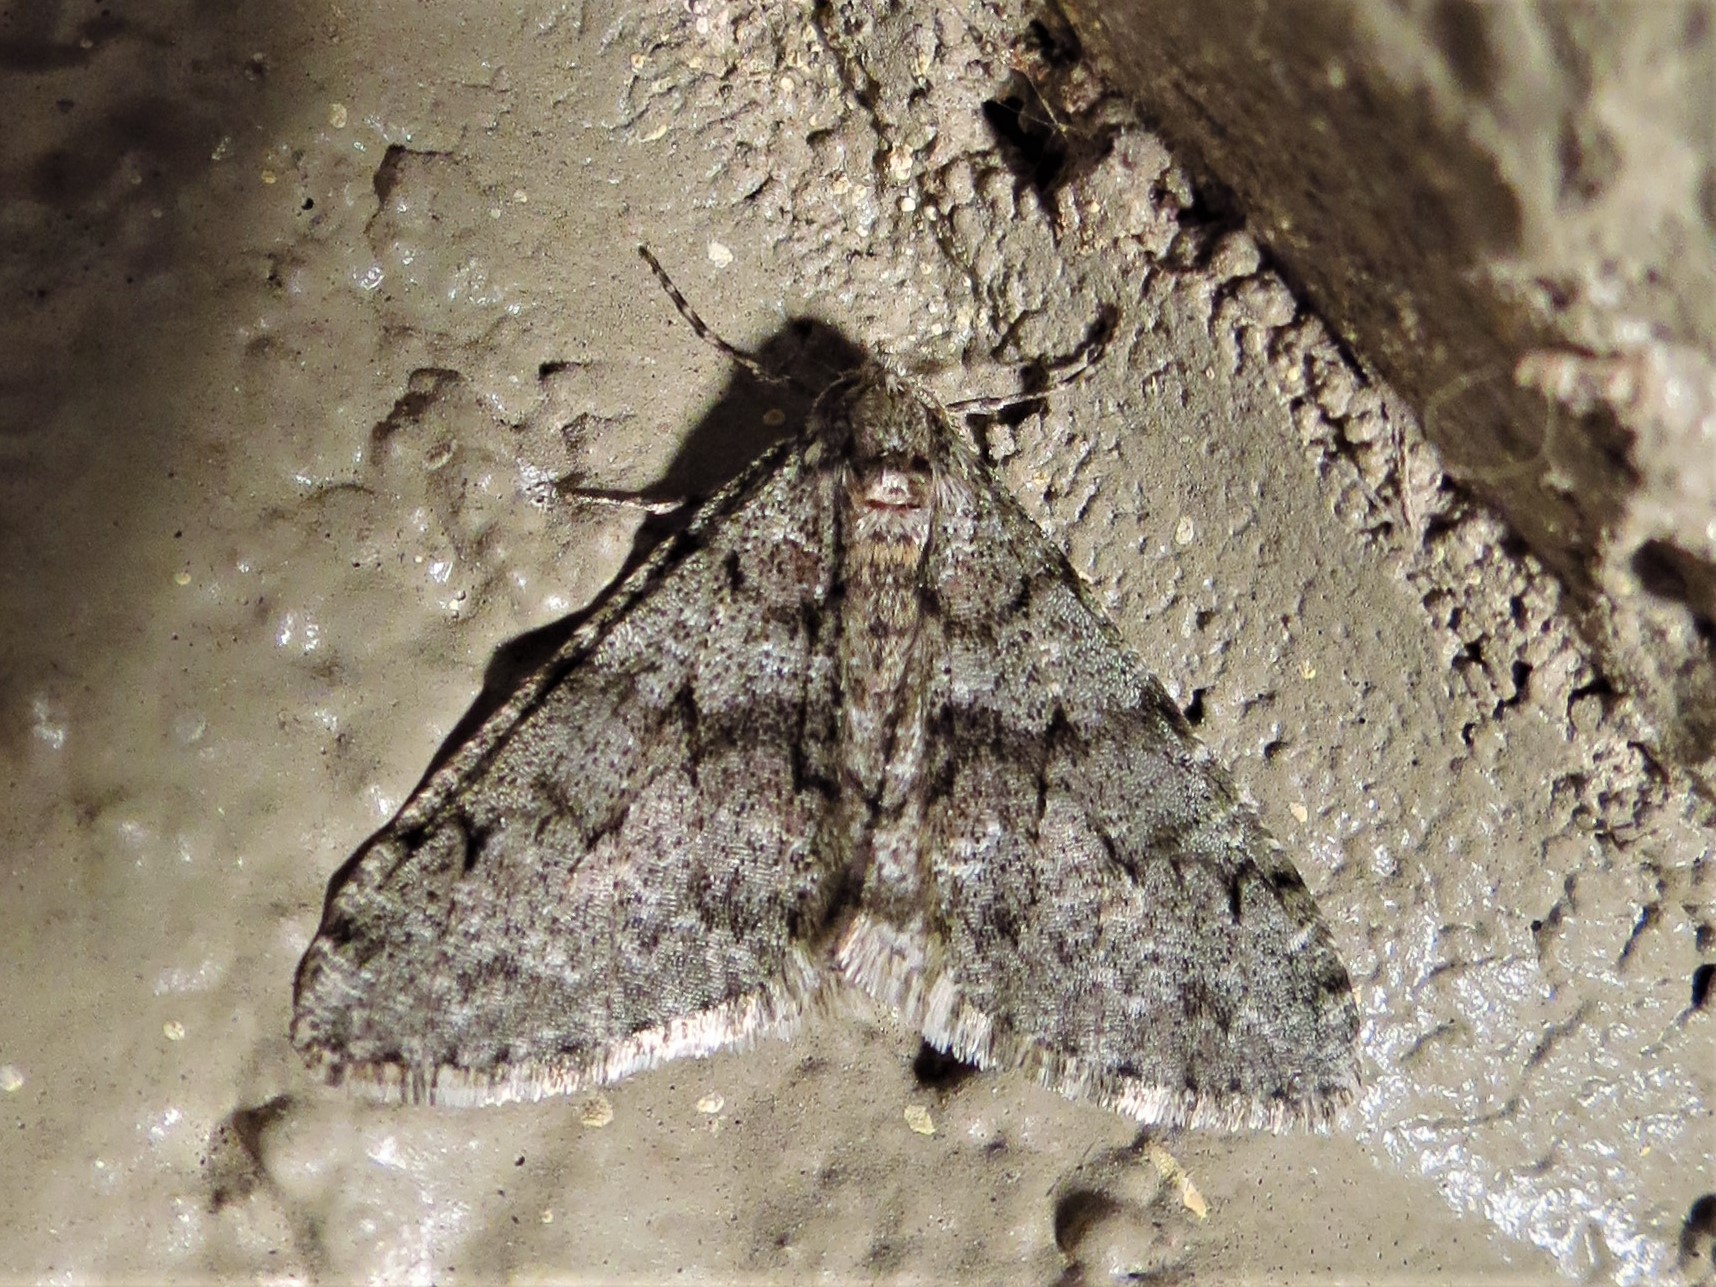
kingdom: Animalia
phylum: Arthropoda
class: Insecta
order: Lepidoptera
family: Geometridae
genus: Phigalia
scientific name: Phigalia denticulata
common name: Toothed phigalia
